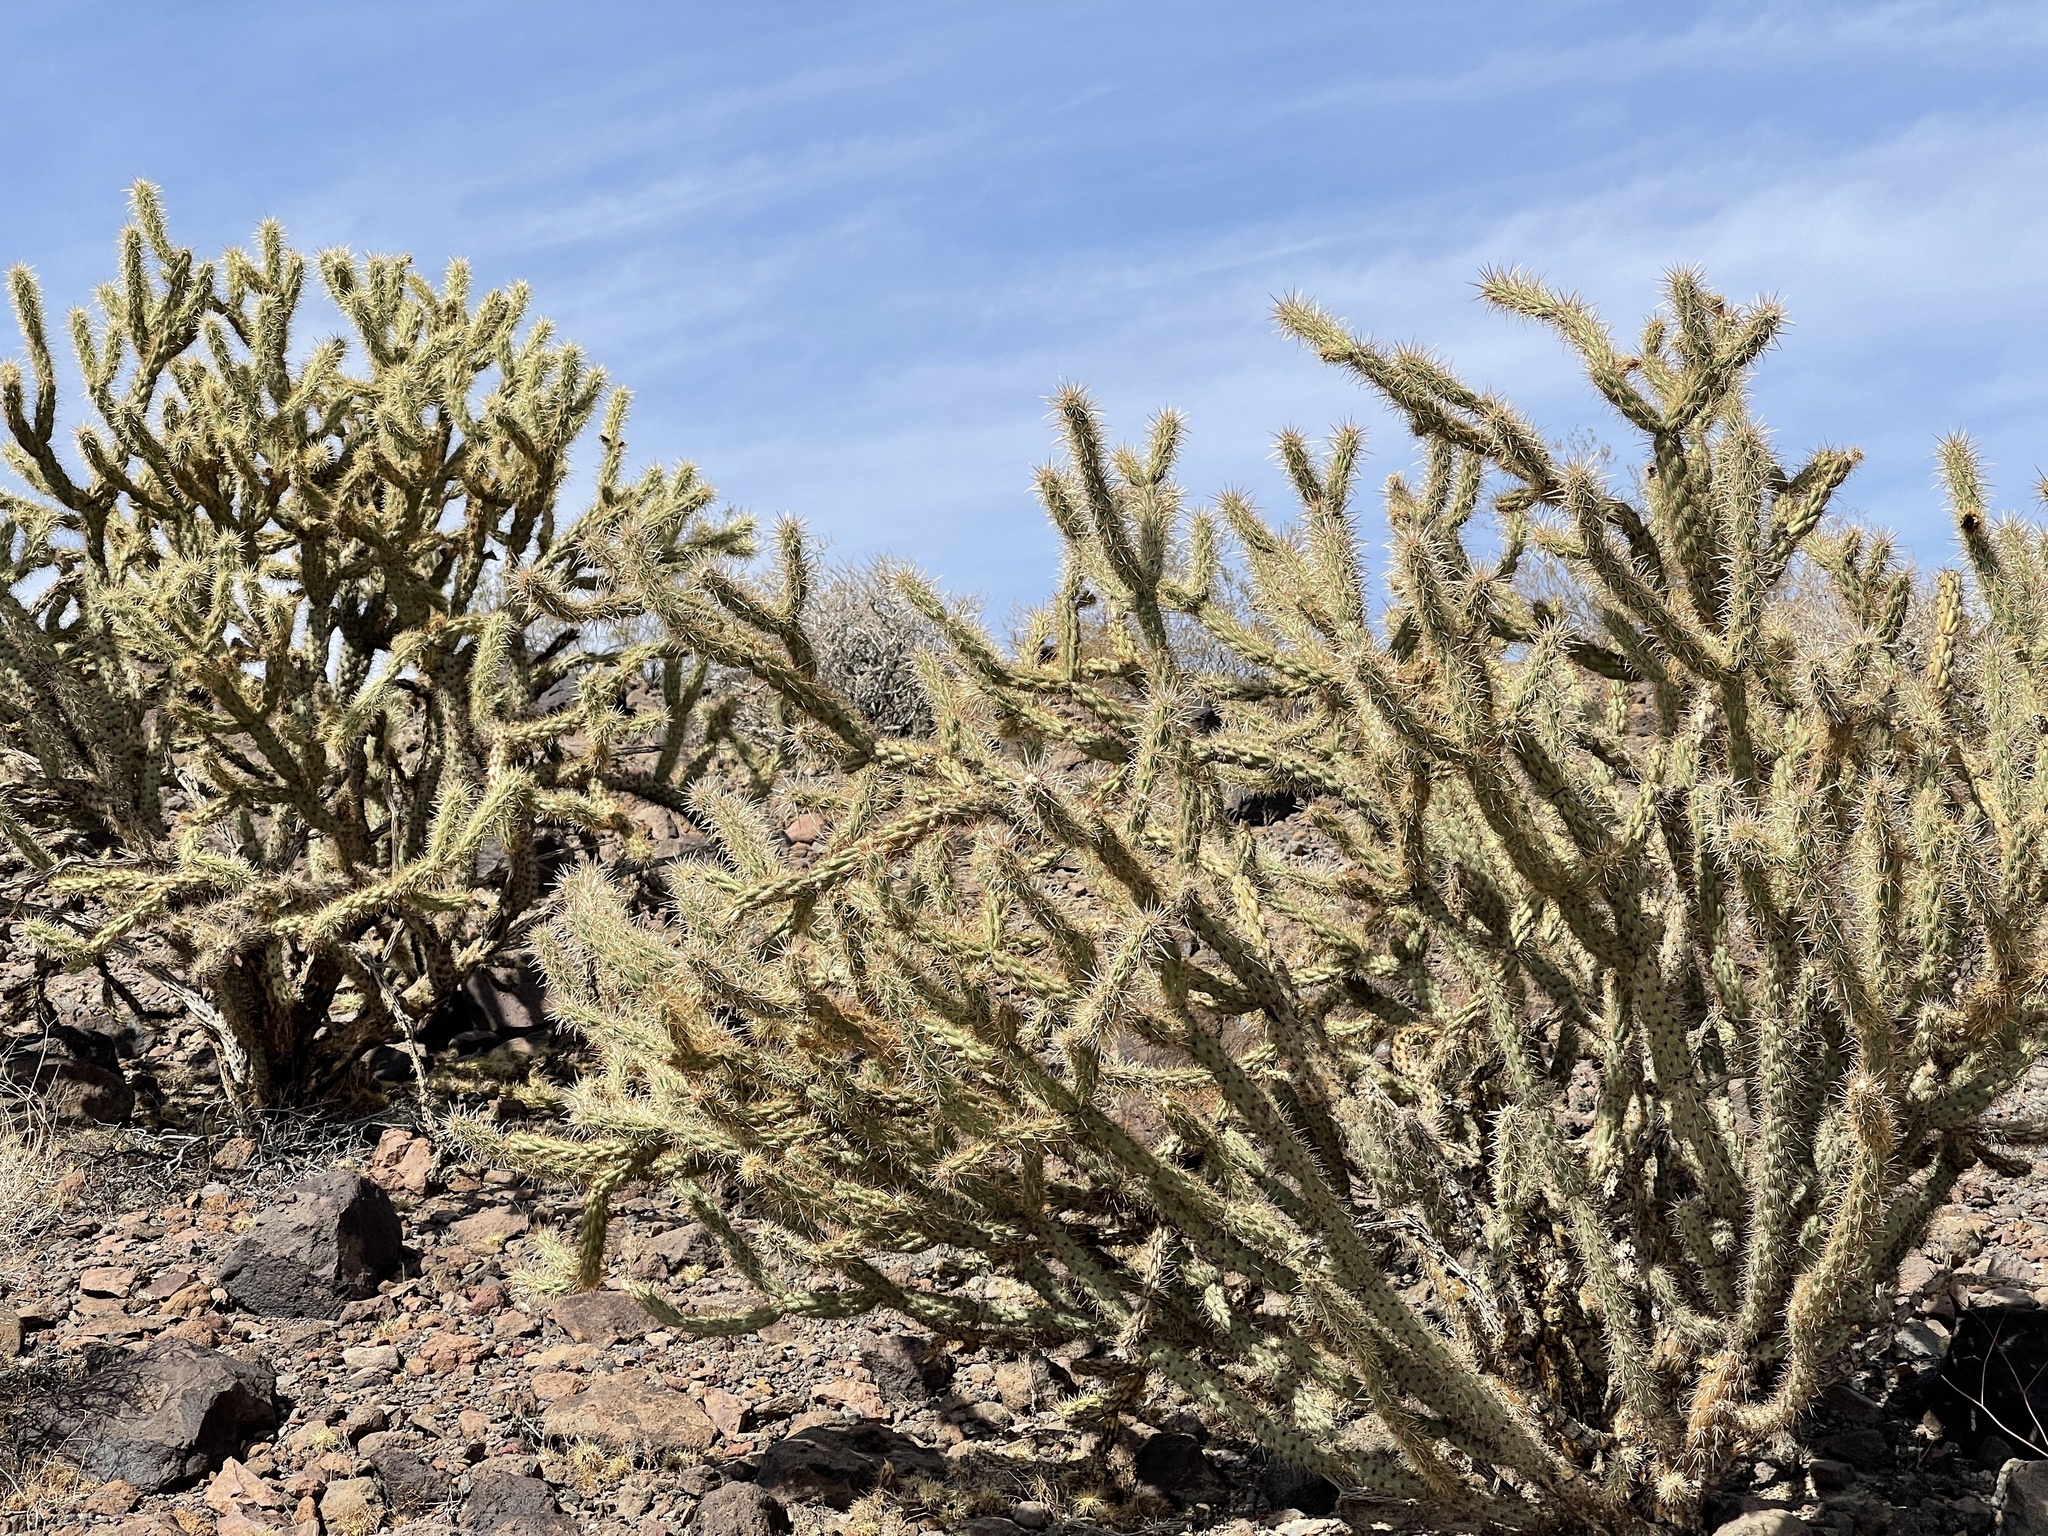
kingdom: Plantae
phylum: Tracheophyta
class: Magnoliopsida
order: Caryophyllales
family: Cactaceae
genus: Cylindropuntia
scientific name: Cylindropuntia acanthocarpa
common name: Buckhorn cholla
